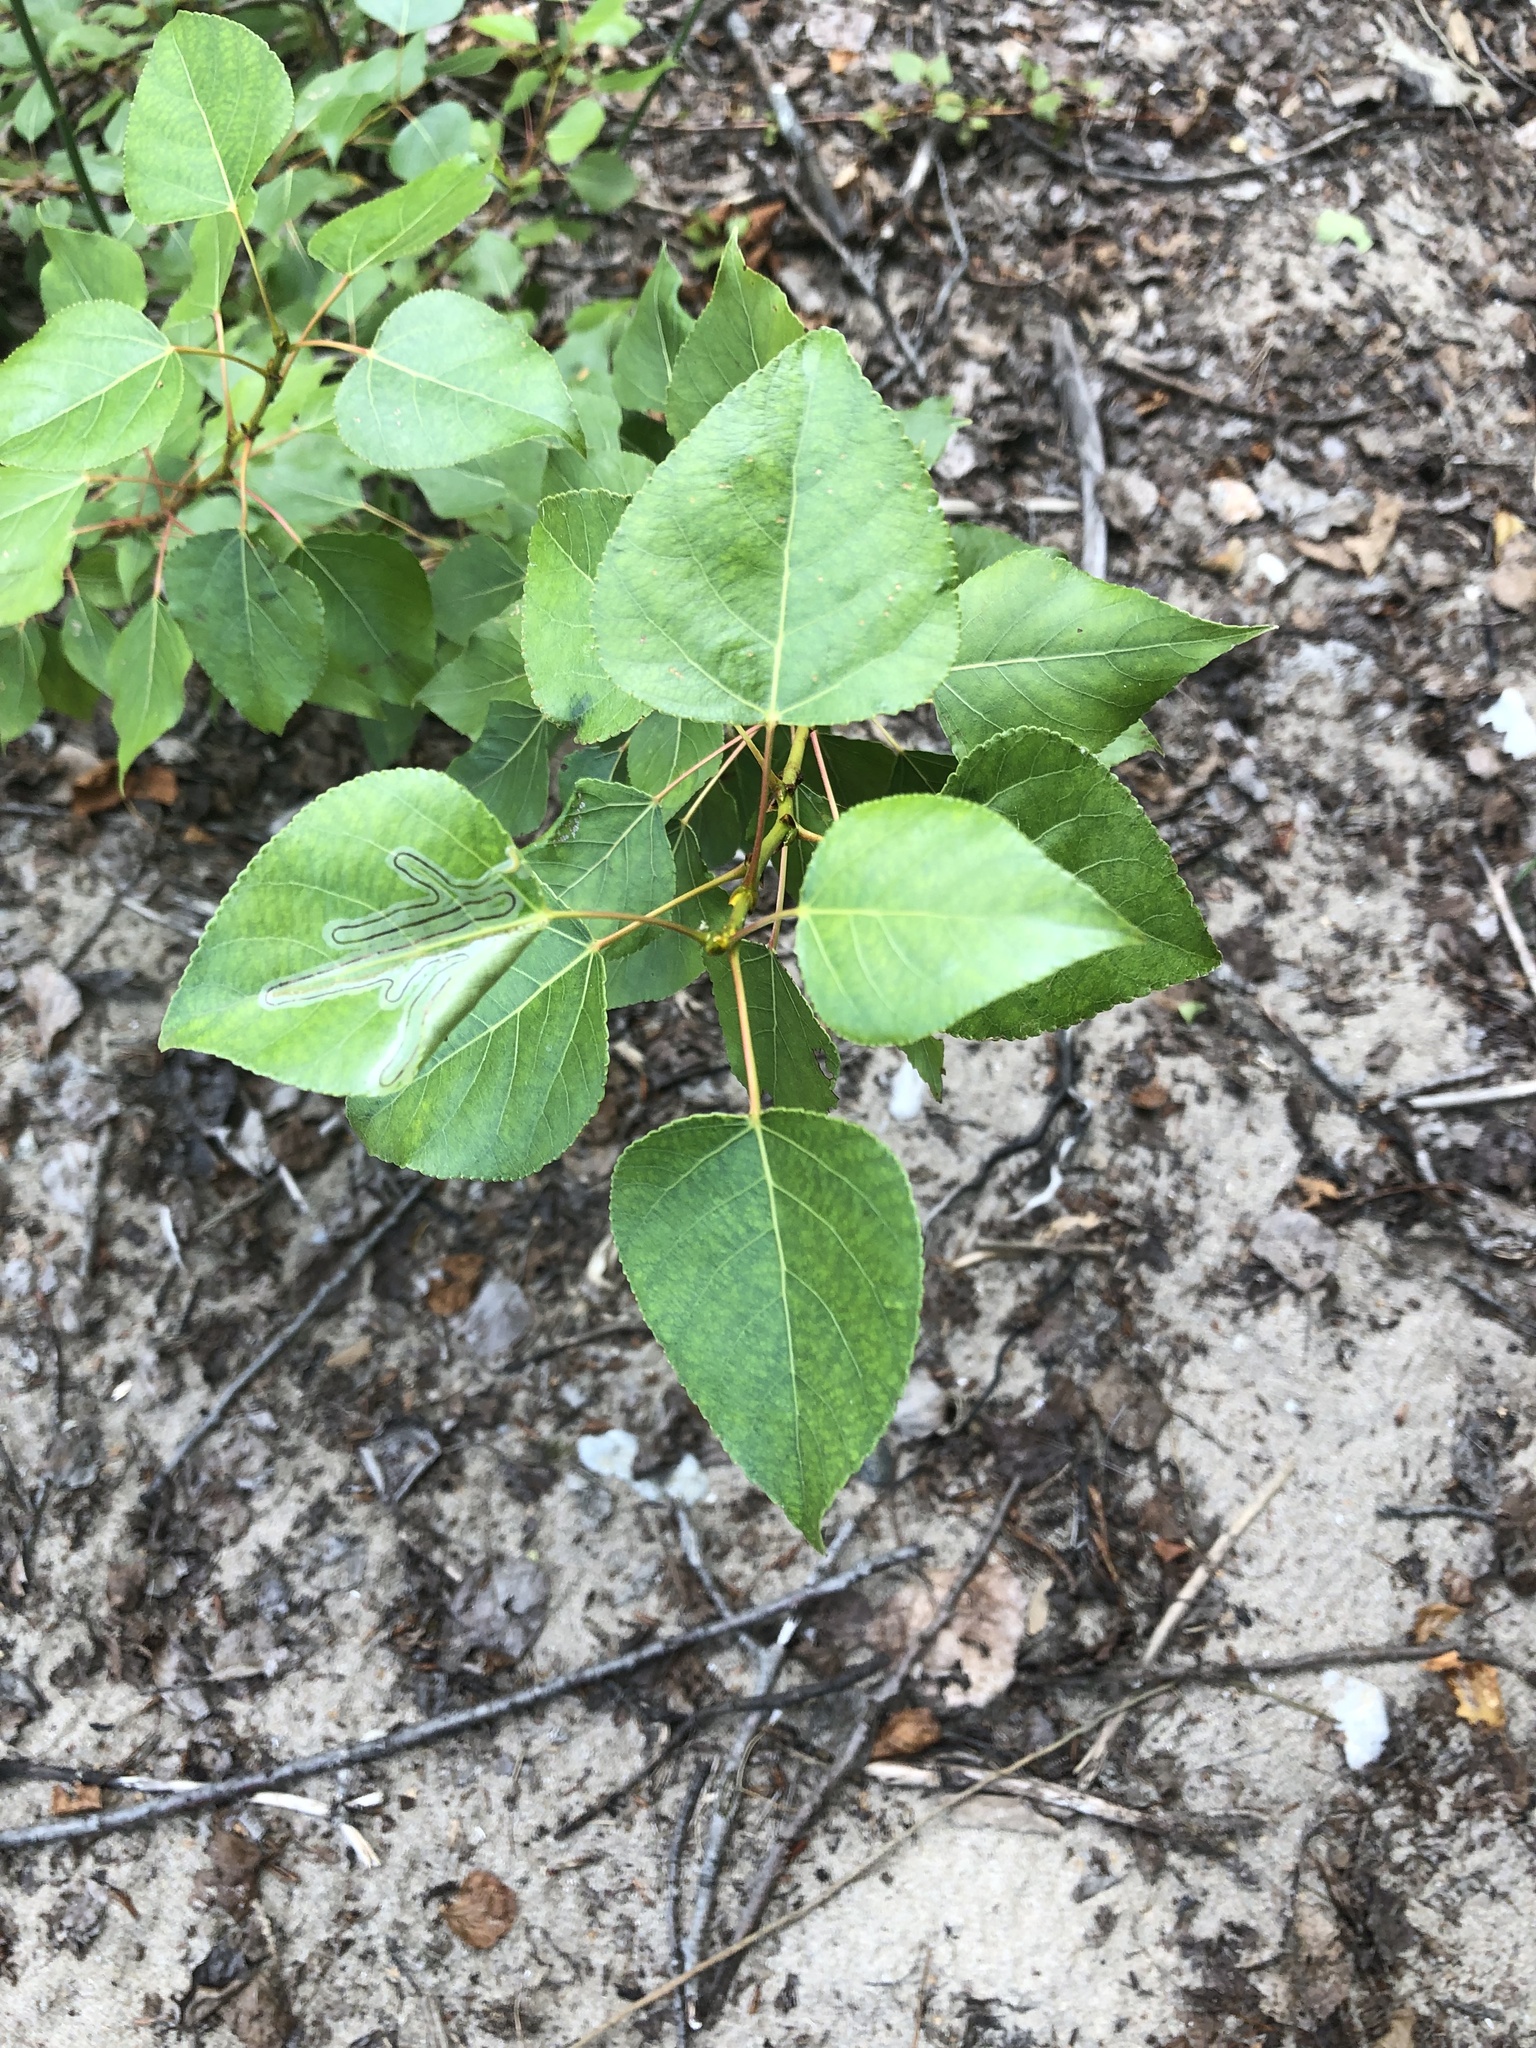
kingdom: Plantae
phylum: Tracheophyta
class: Magnoliopsida
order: Malpighiales
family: Salicaceae
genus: Populus
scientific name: Populus balsamifera
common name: Balsam poplar
